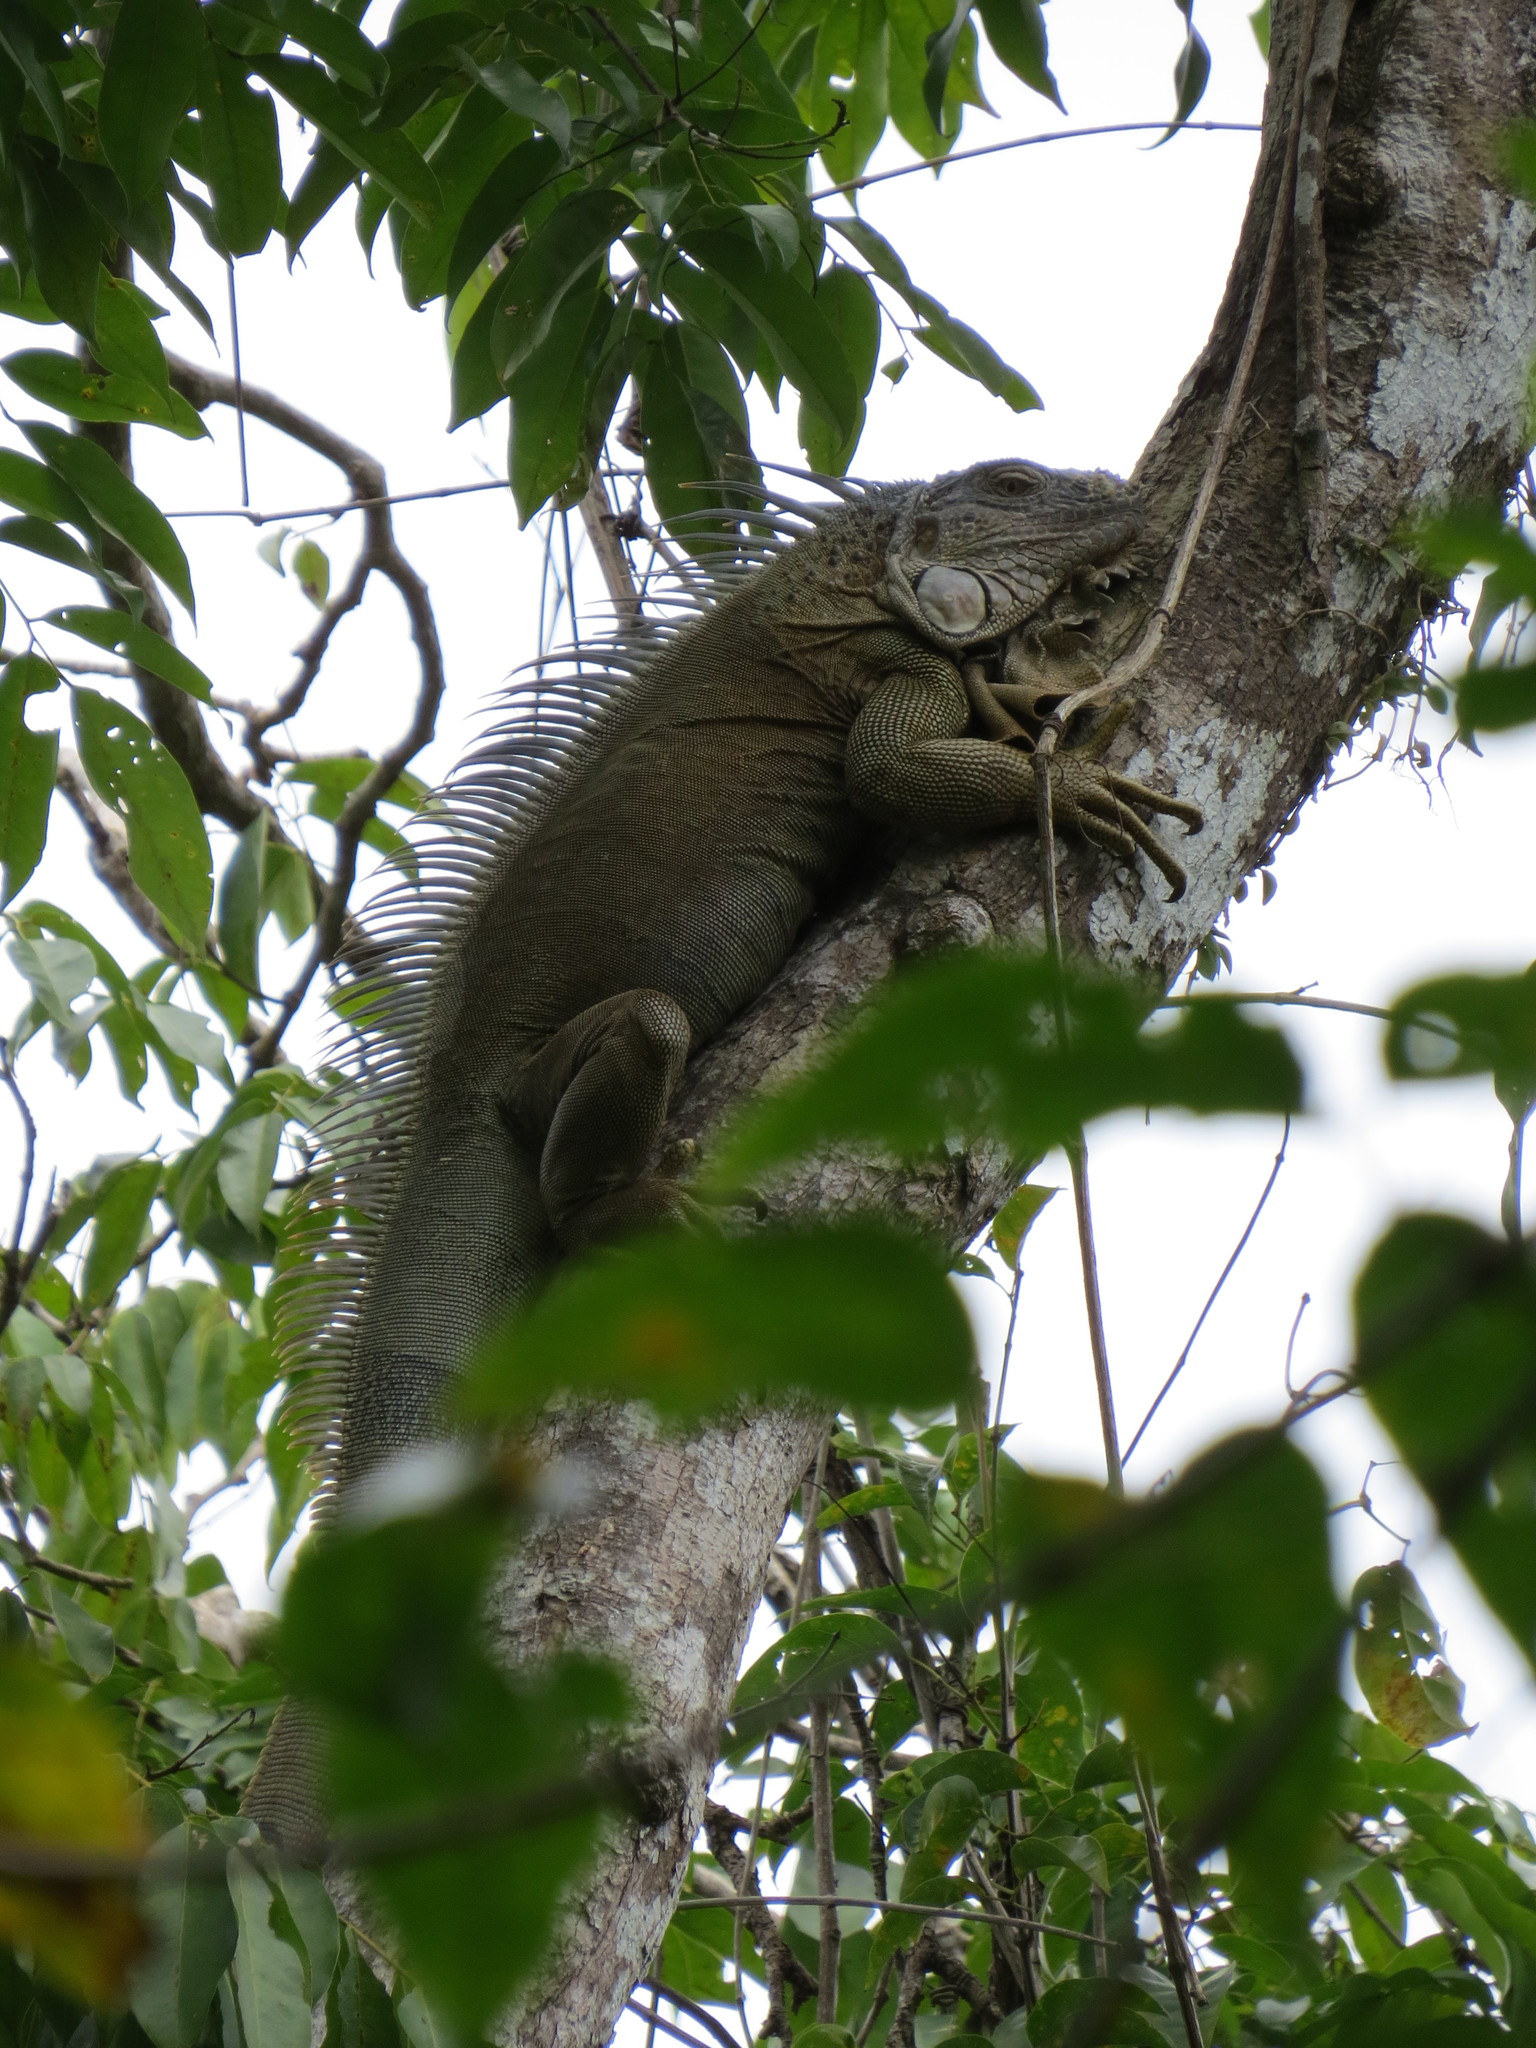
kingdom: Animalia
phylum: Chordata
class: Squamata
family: Iguanidae
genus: Iguana
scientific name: Iguana iguana
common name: Green iguana
